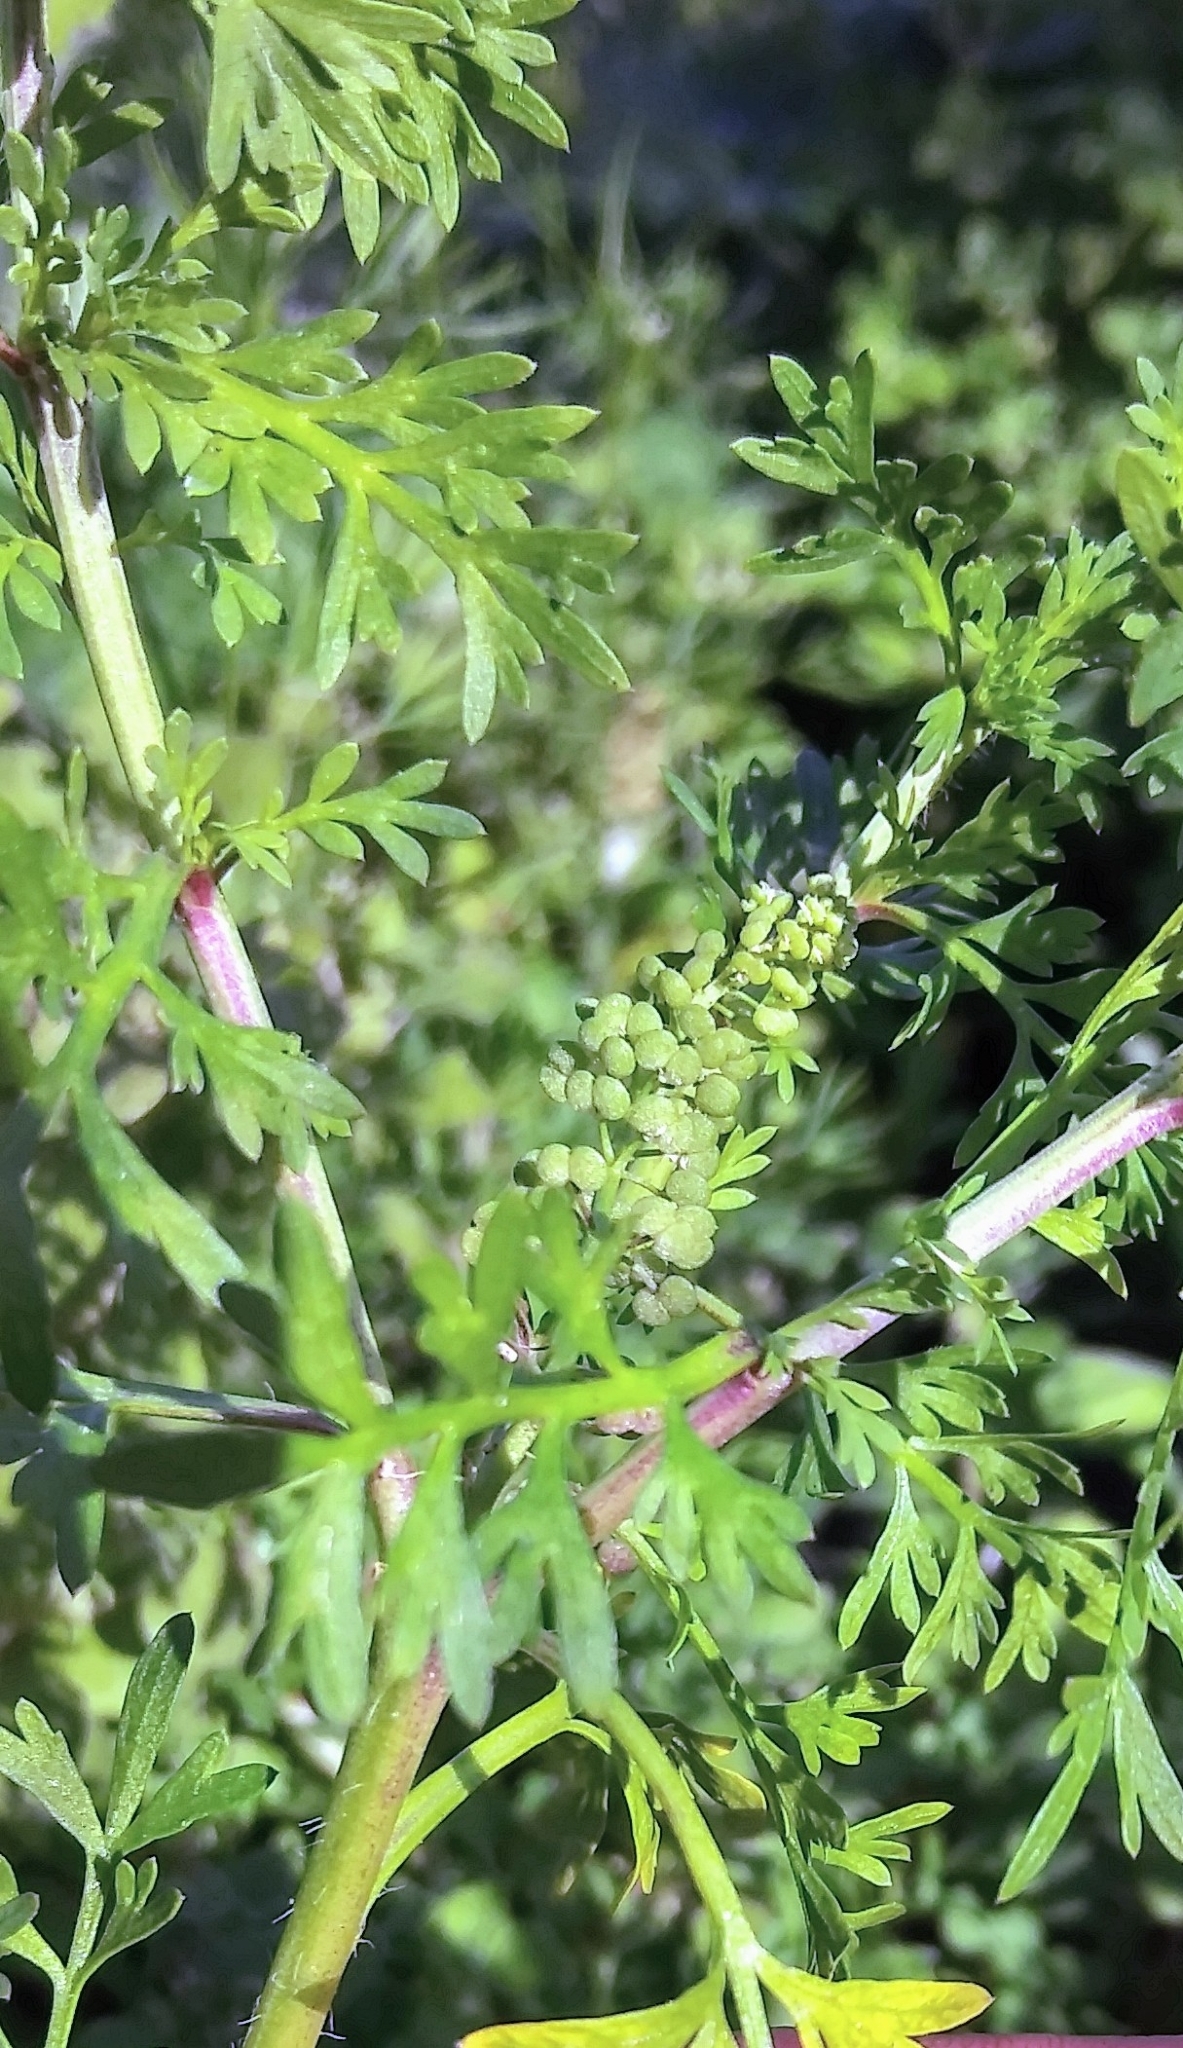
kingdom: Plantae
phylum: Tracheophyta
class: Magnoliopsida
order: Asterales
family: Asteraceae
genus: Ambrosia
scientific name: Ambrosia artemisiifolia
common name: Annual ragweed
